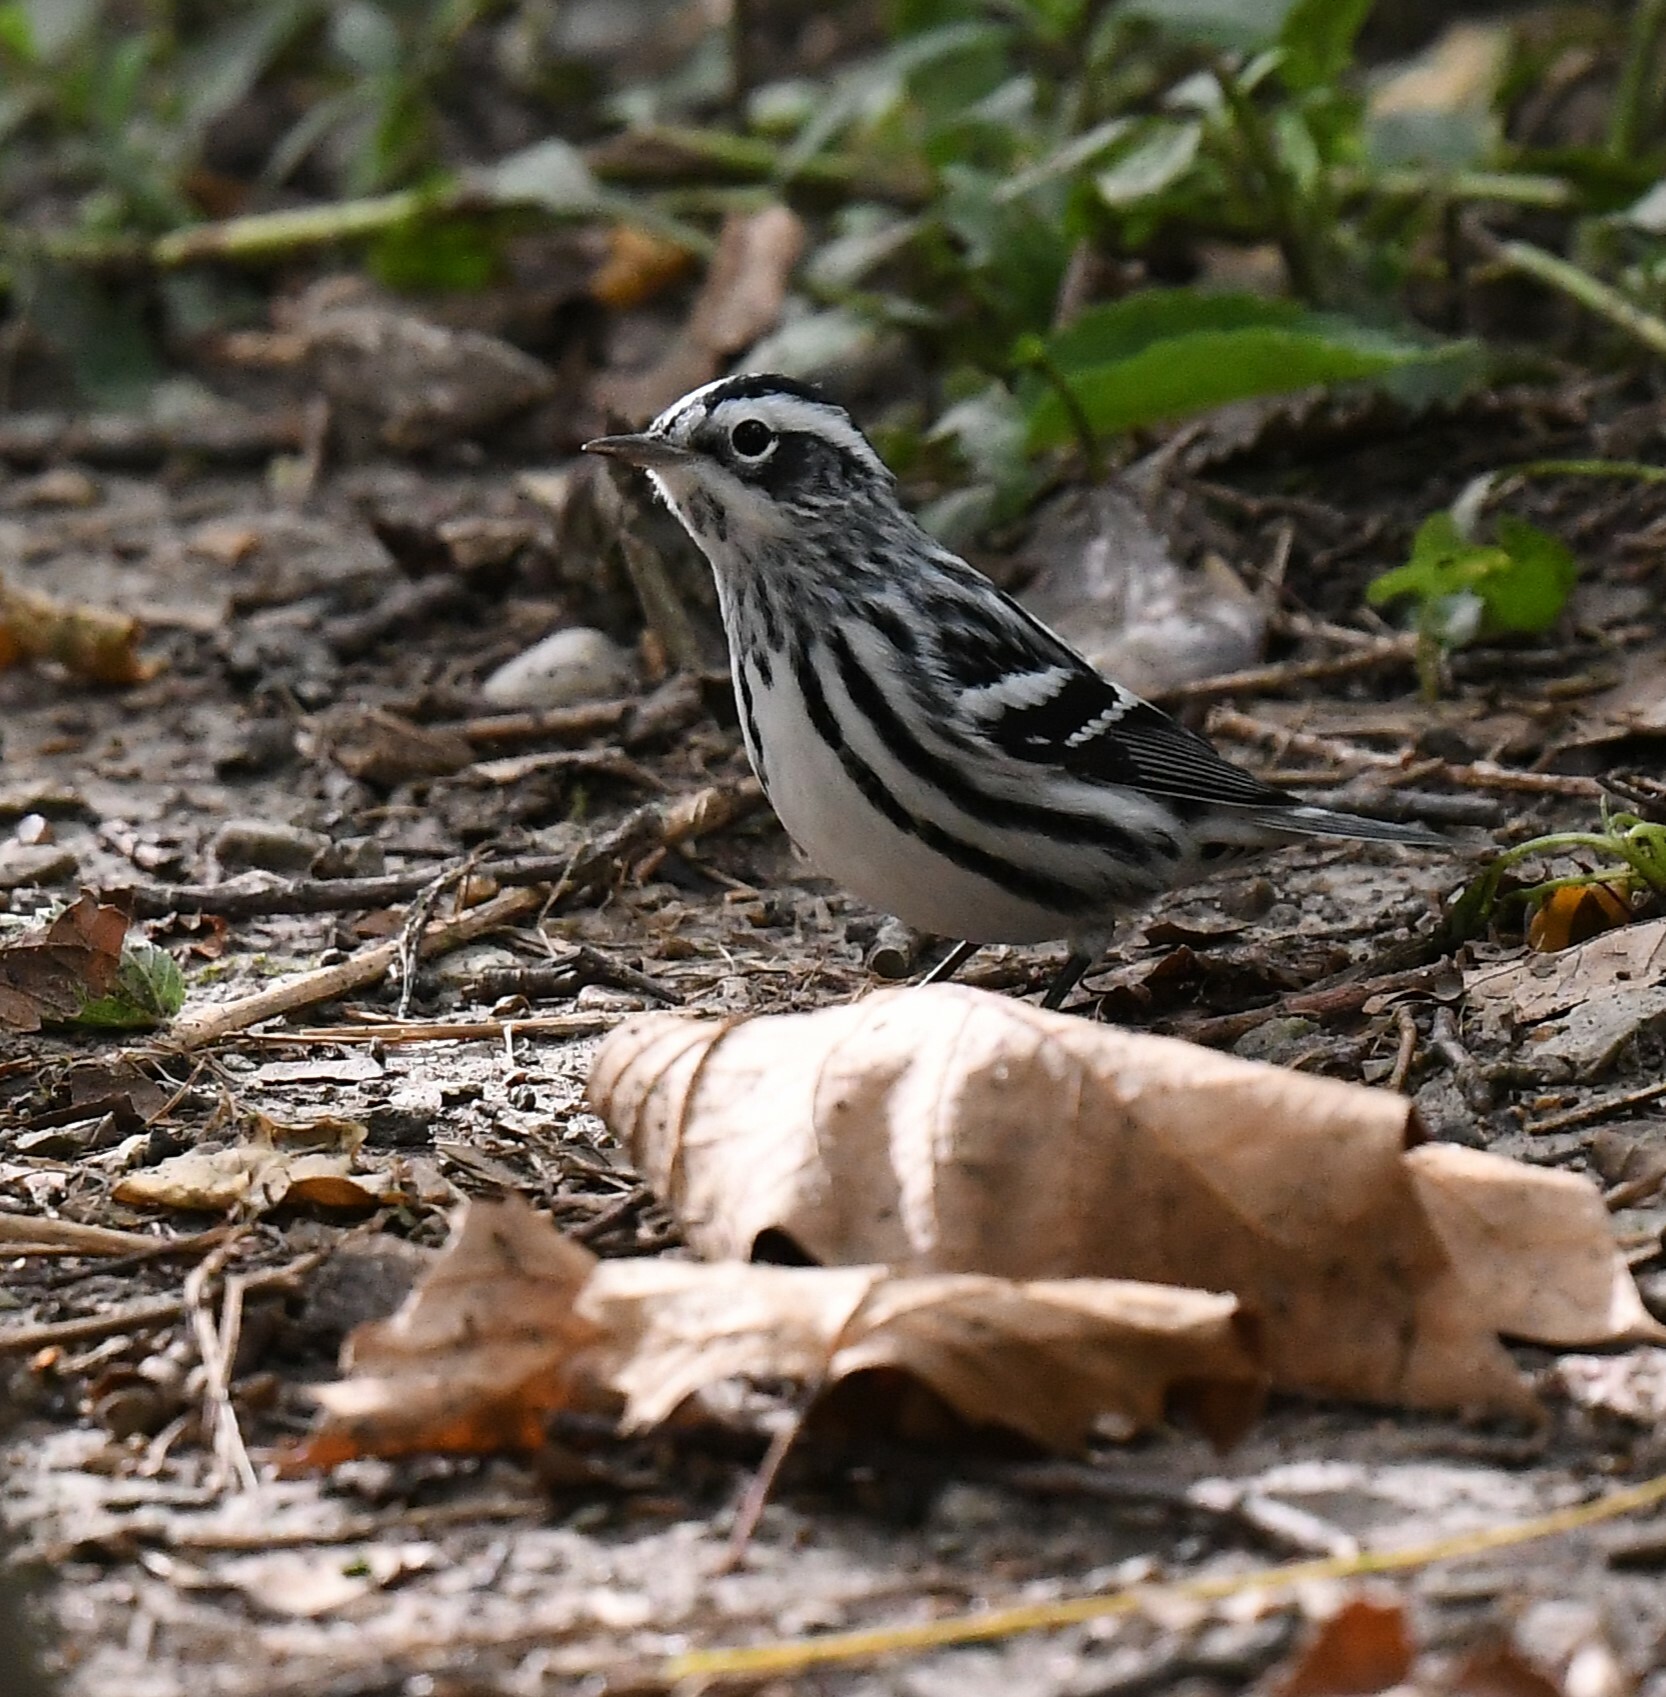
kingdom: Animalia
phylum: Chordata
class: Aves
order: Passeriformes
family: Parulidae
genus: Mniotilta
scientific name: Mniotilta varia
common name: Black-and-white warbler
